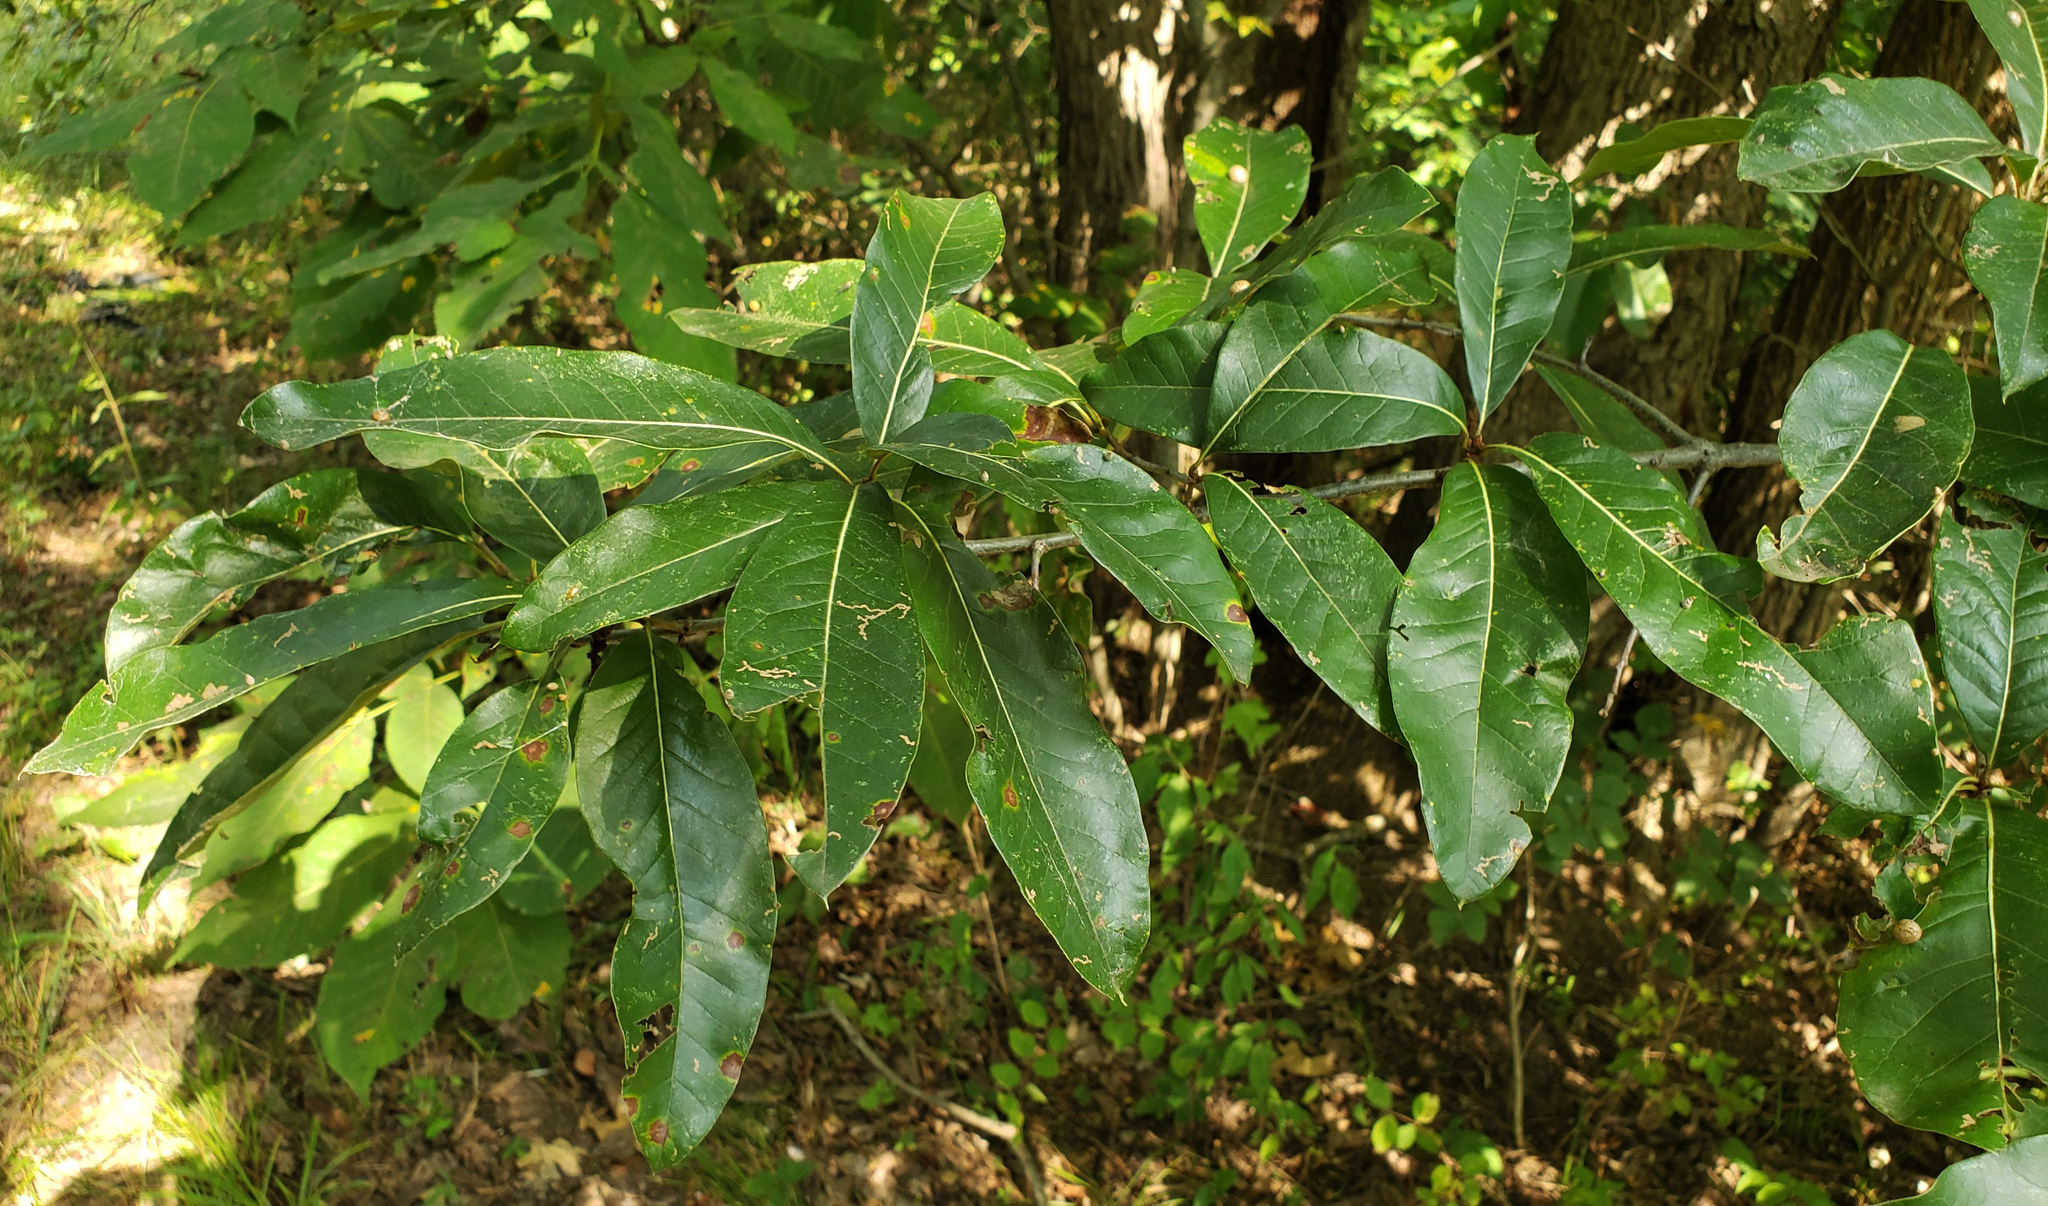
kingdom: Plantae
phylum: Tracheophyta
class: Magnoliopsida
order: Fagales
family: Fagaceae
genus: Quercus
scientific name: Quercus imbricaria
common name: Shingle oak
